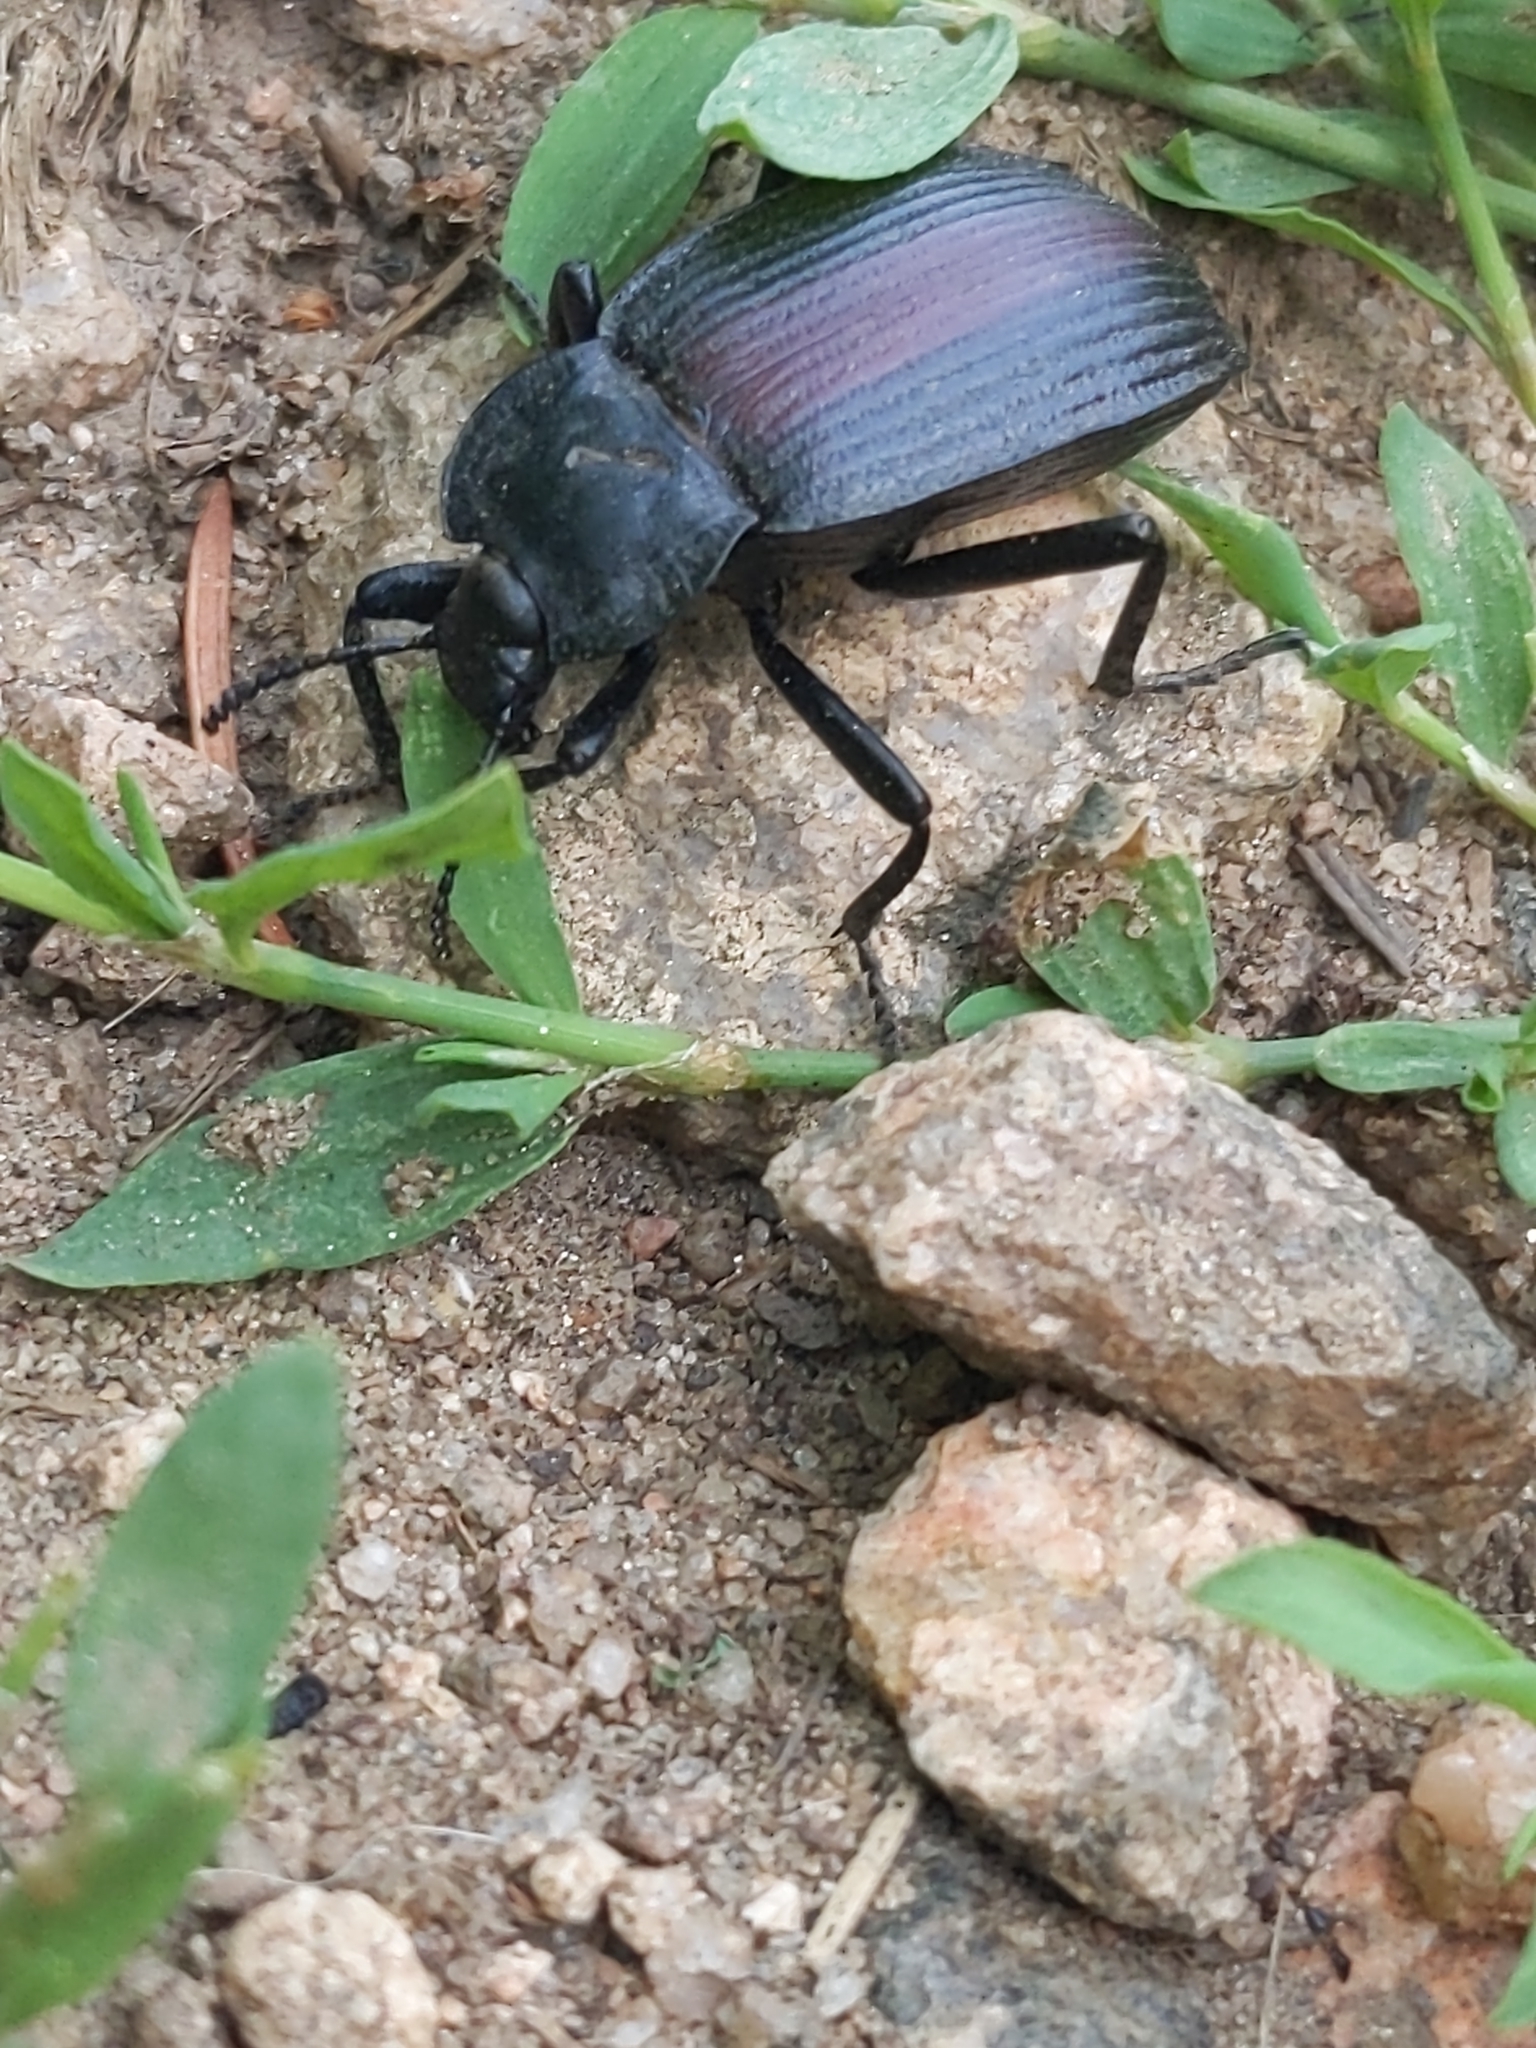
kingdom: Animalia
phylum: Arthropoda
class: Insecta
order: Coleoptera
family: Tenebrionidae
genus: Eleodes
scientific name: Eleodes suturalis
